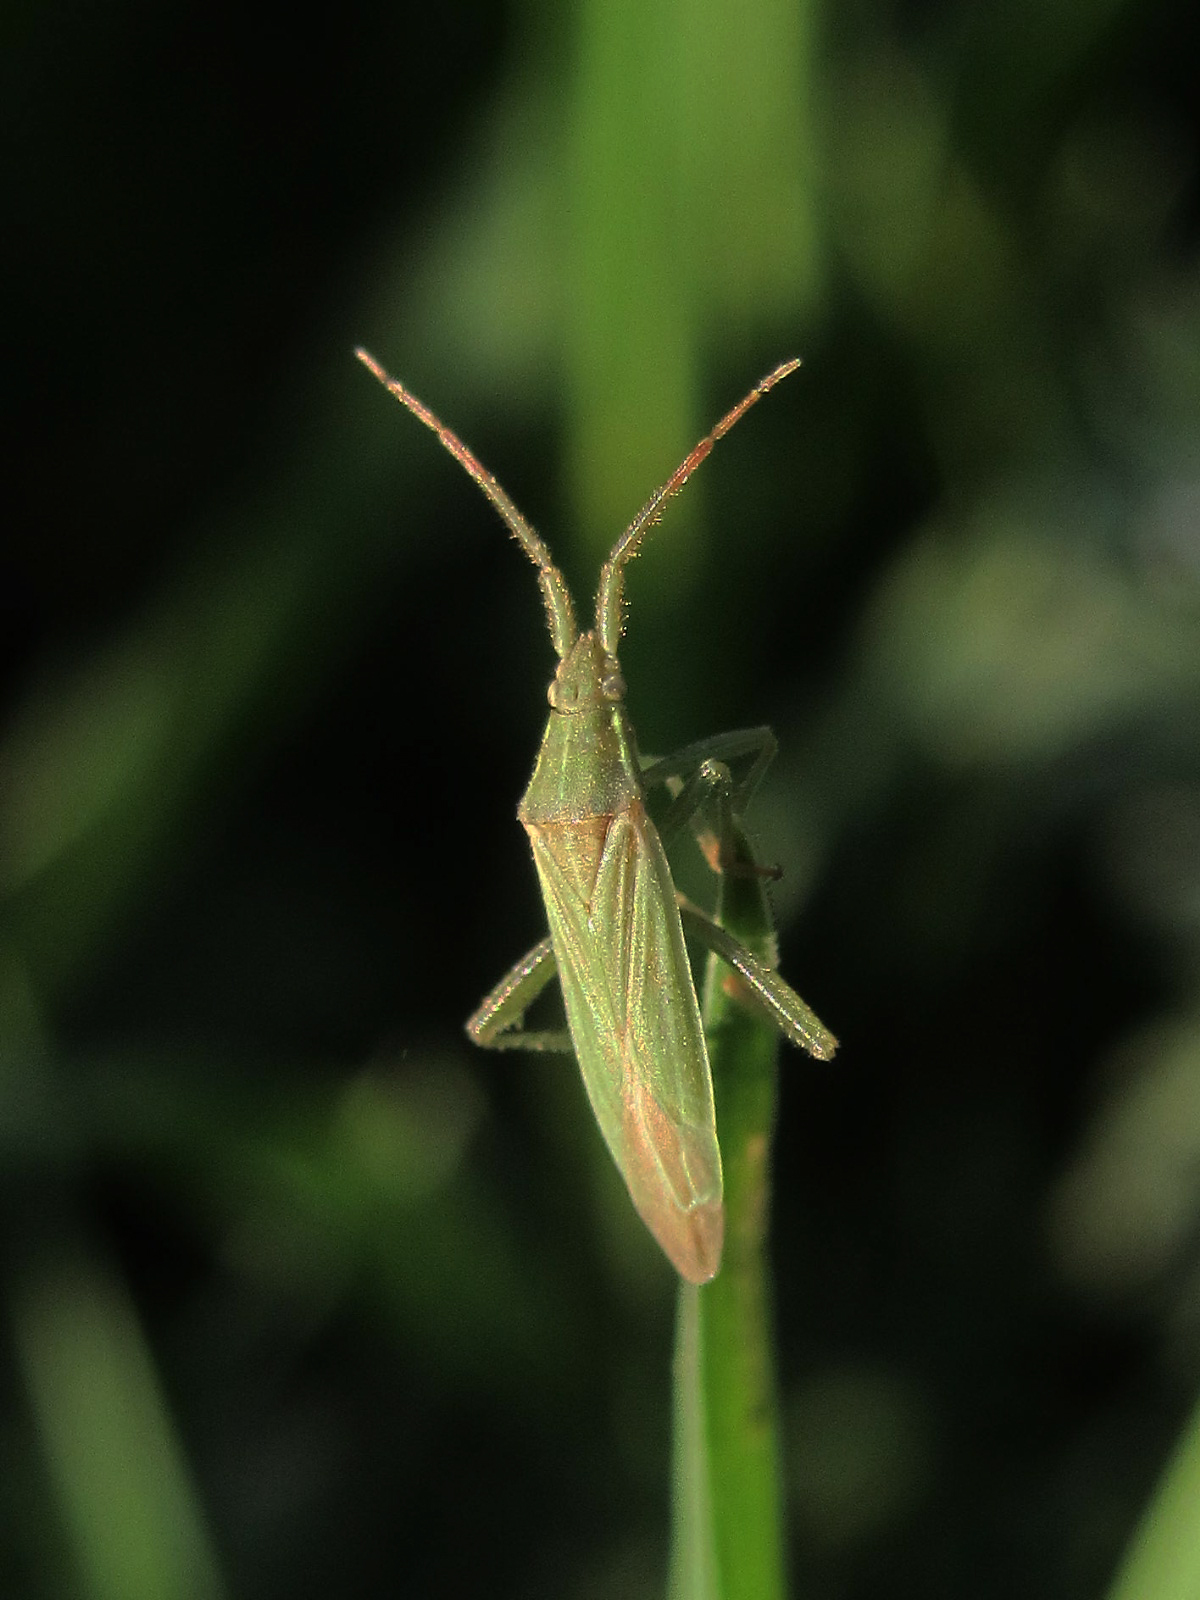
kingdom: Animalia
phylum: Arthropoda
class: Insecta
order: Hemiptera
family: Miridae
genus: Stenodema
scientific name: Stenodema calcarata
